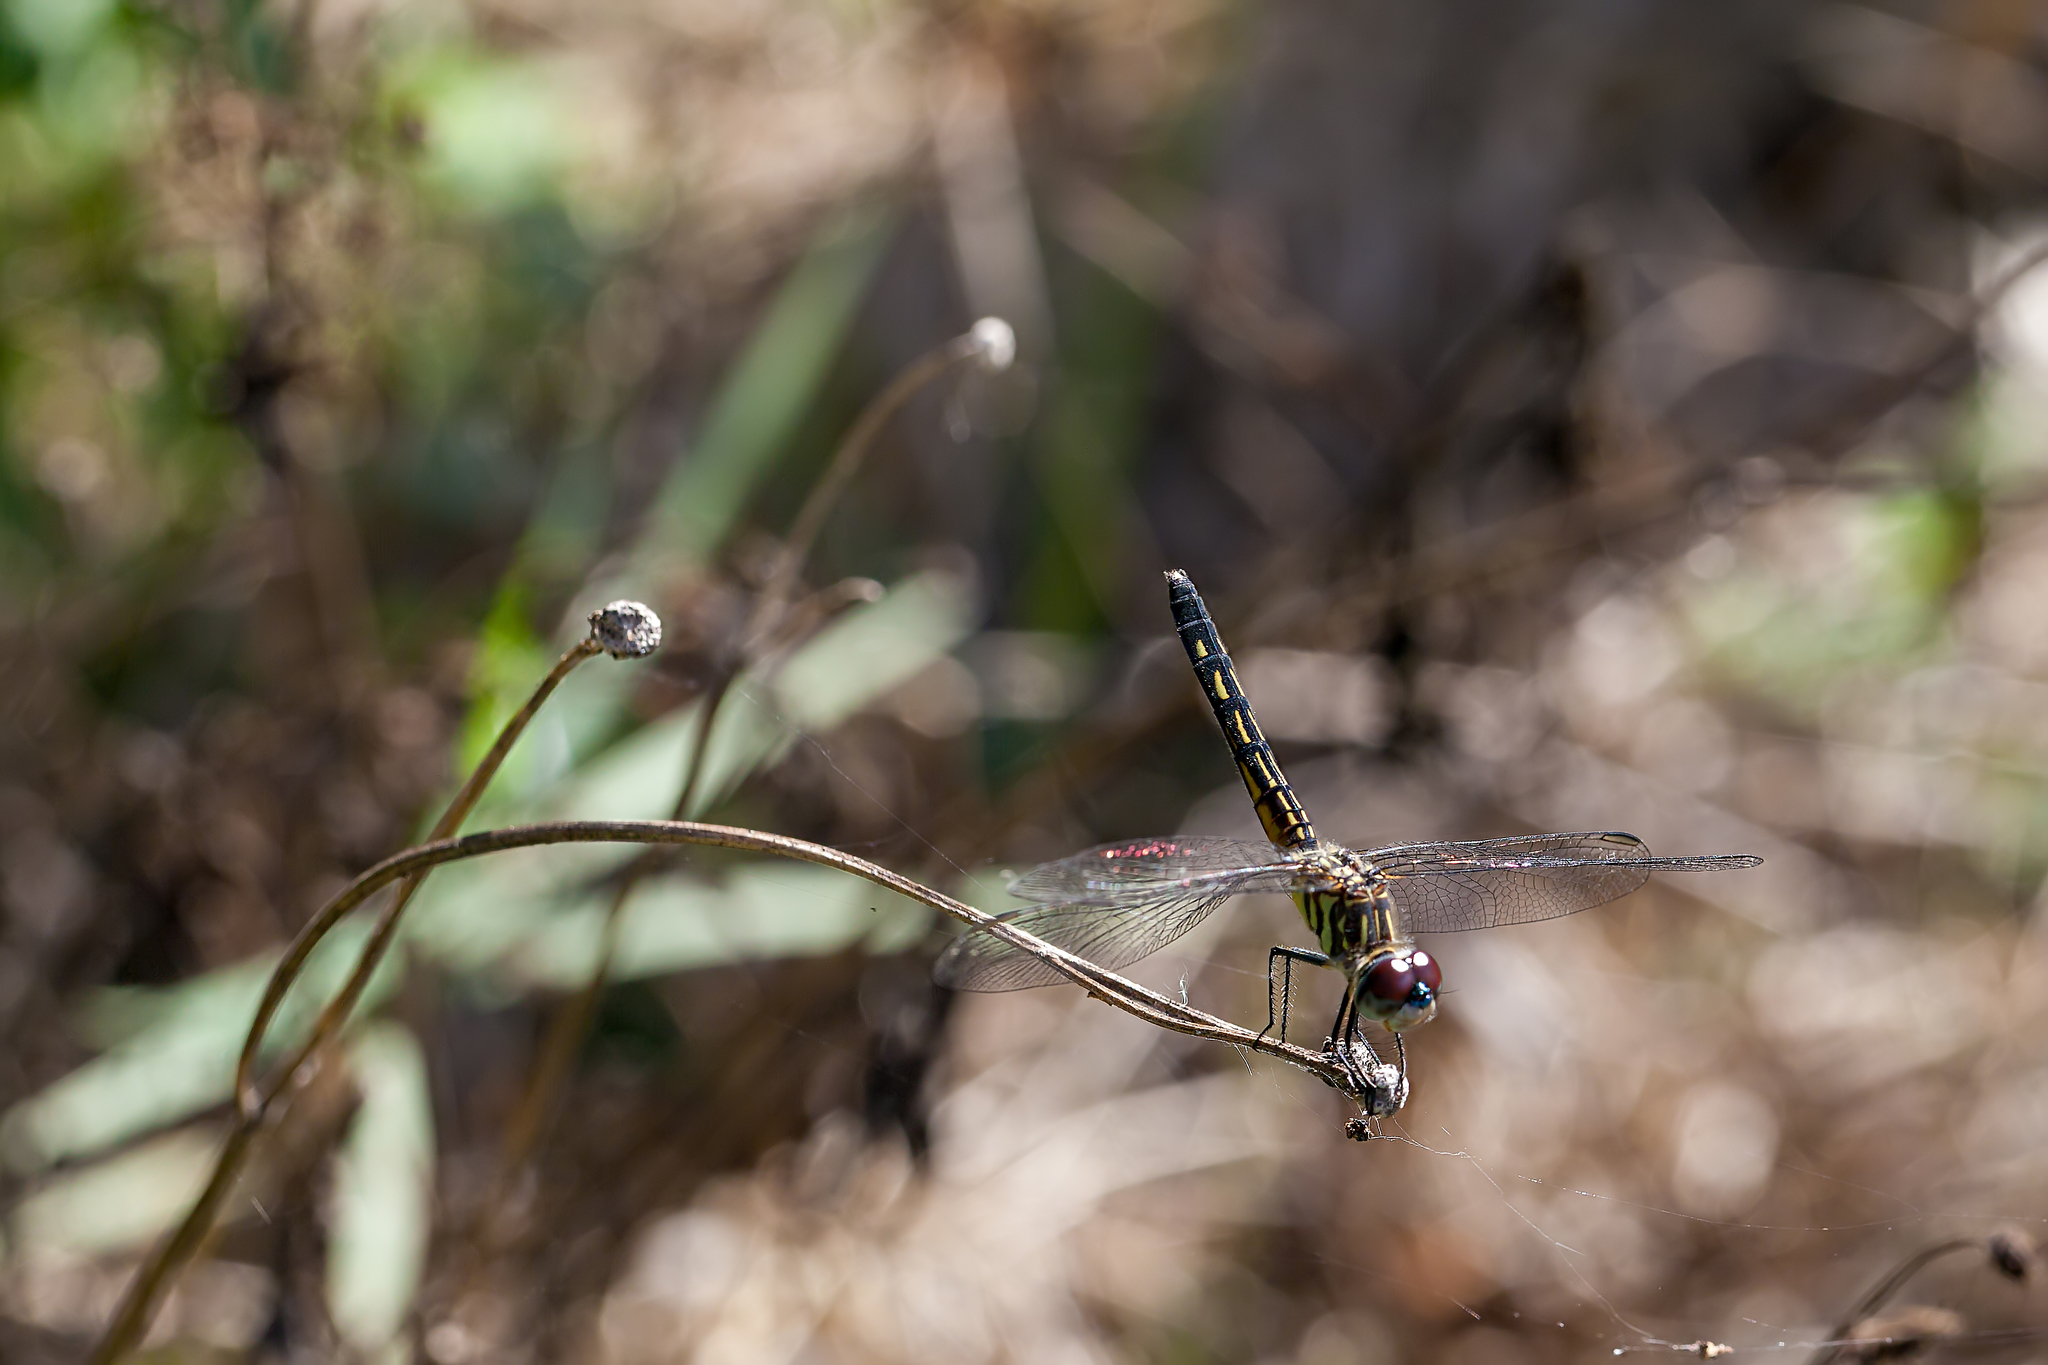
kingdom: Animalia
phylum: Arthropoda
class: Insecta
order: Odonata
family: Libellulidae
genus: Pachydiplax
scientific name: Pachydiplax longipennis
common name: Blue dasher
